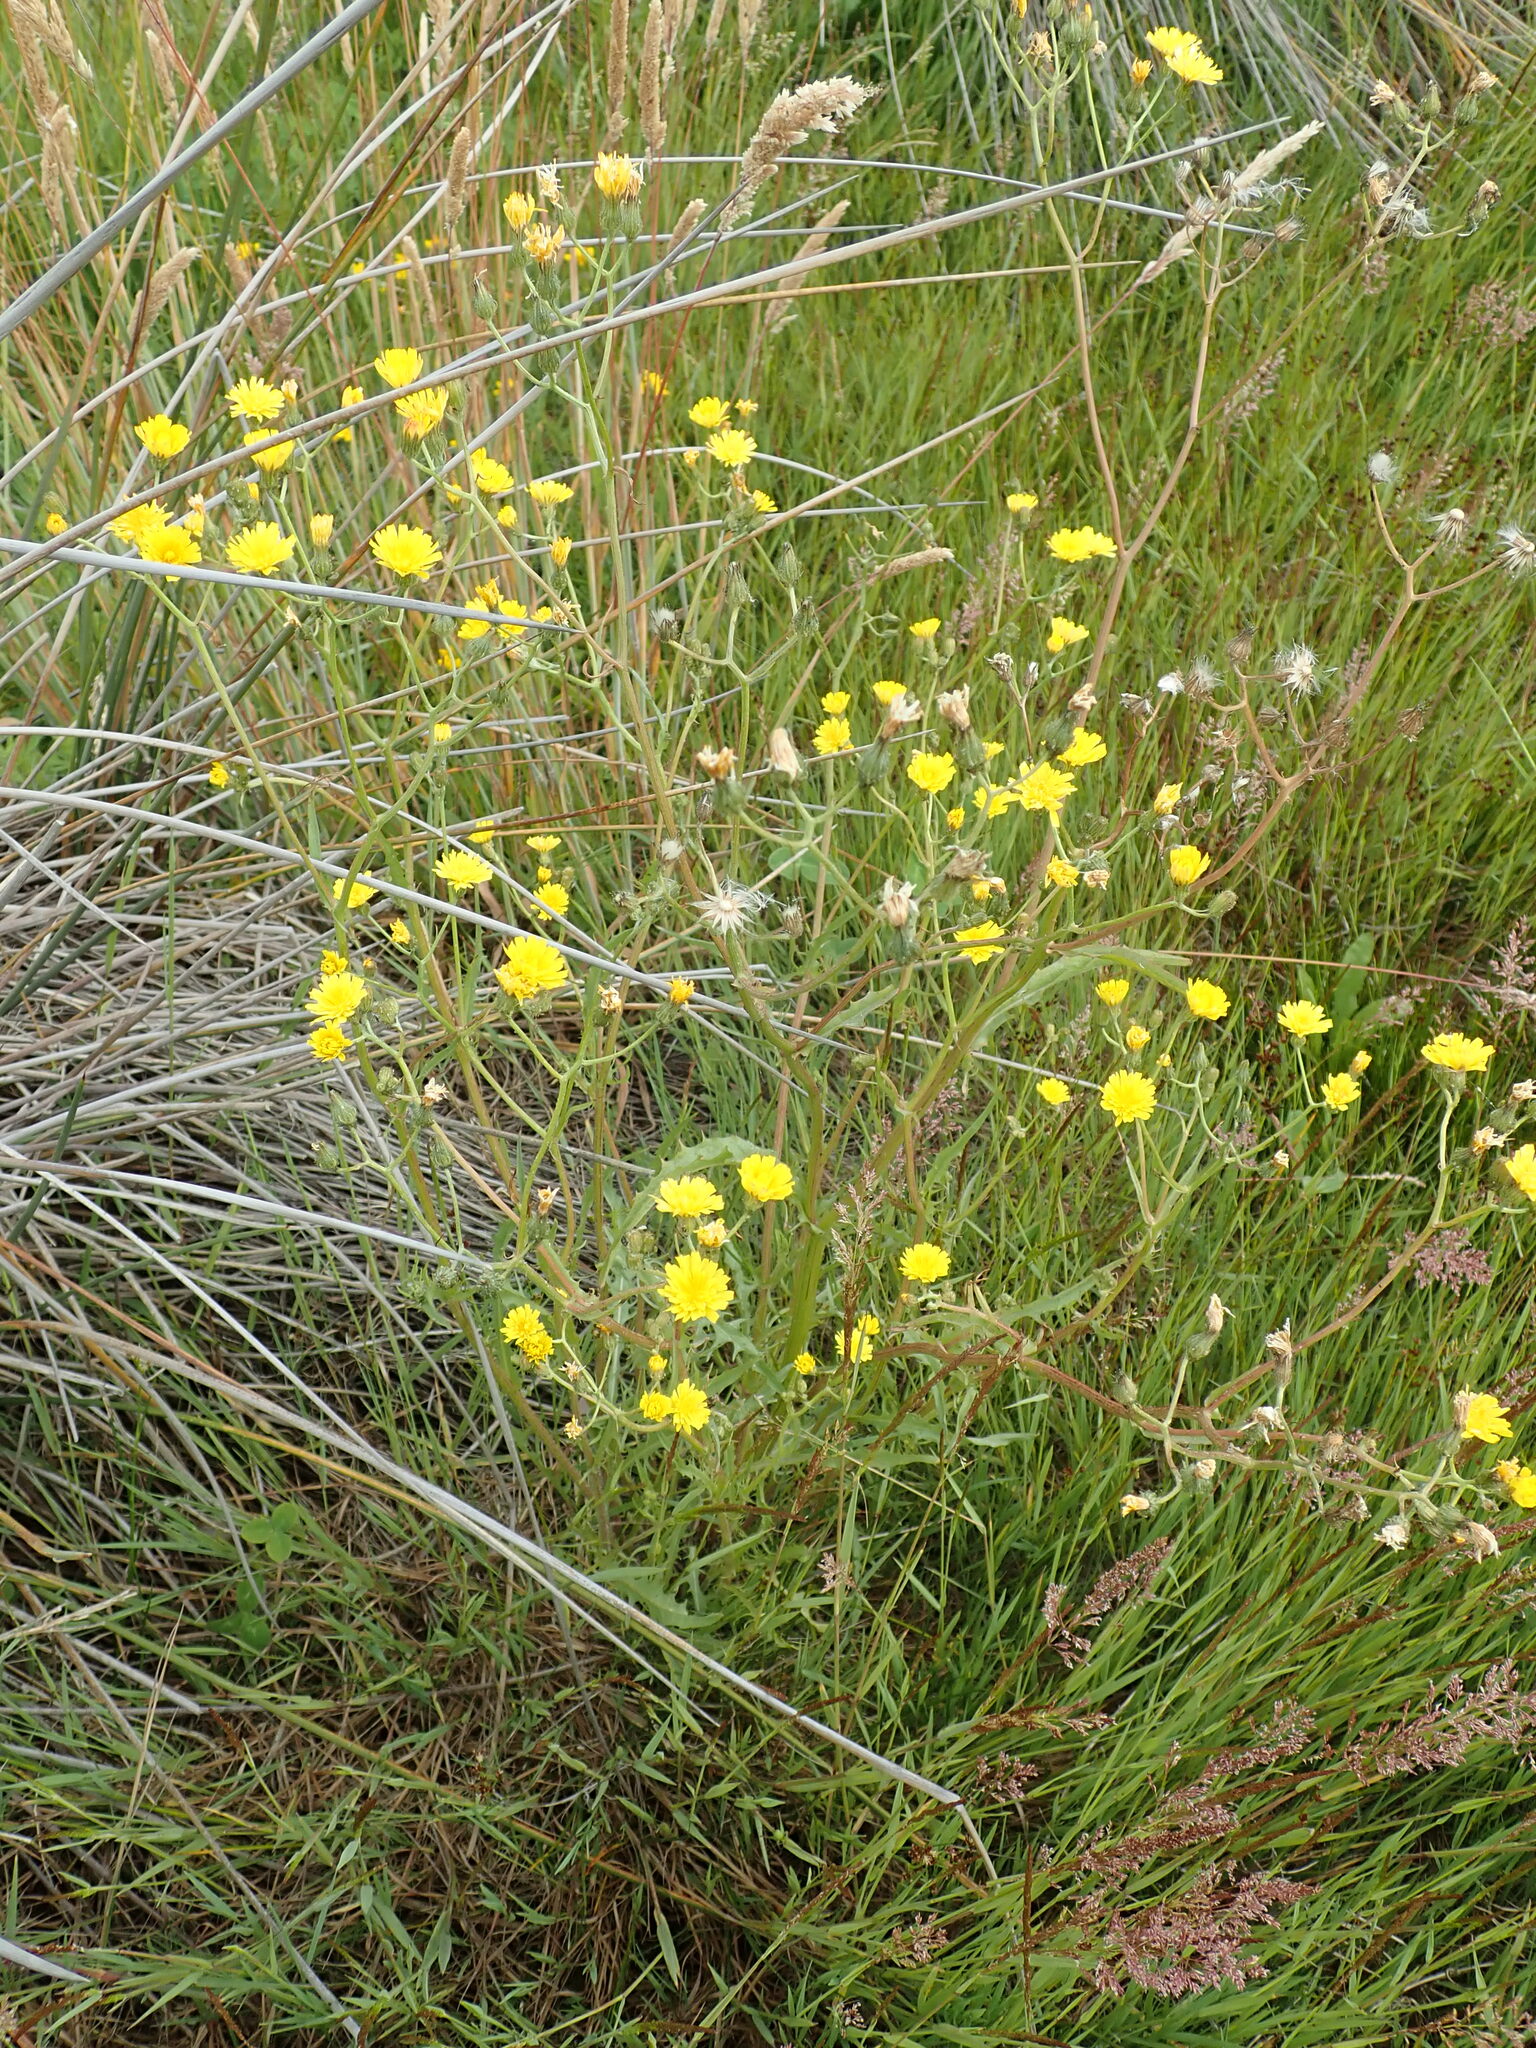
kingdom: Plantae
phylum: Tracheophyta
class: Magnoliopsida
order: Asterales
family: Asteraceae
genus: Crepis
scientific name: Crepis capillaris
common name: Smooth hawksbeard
